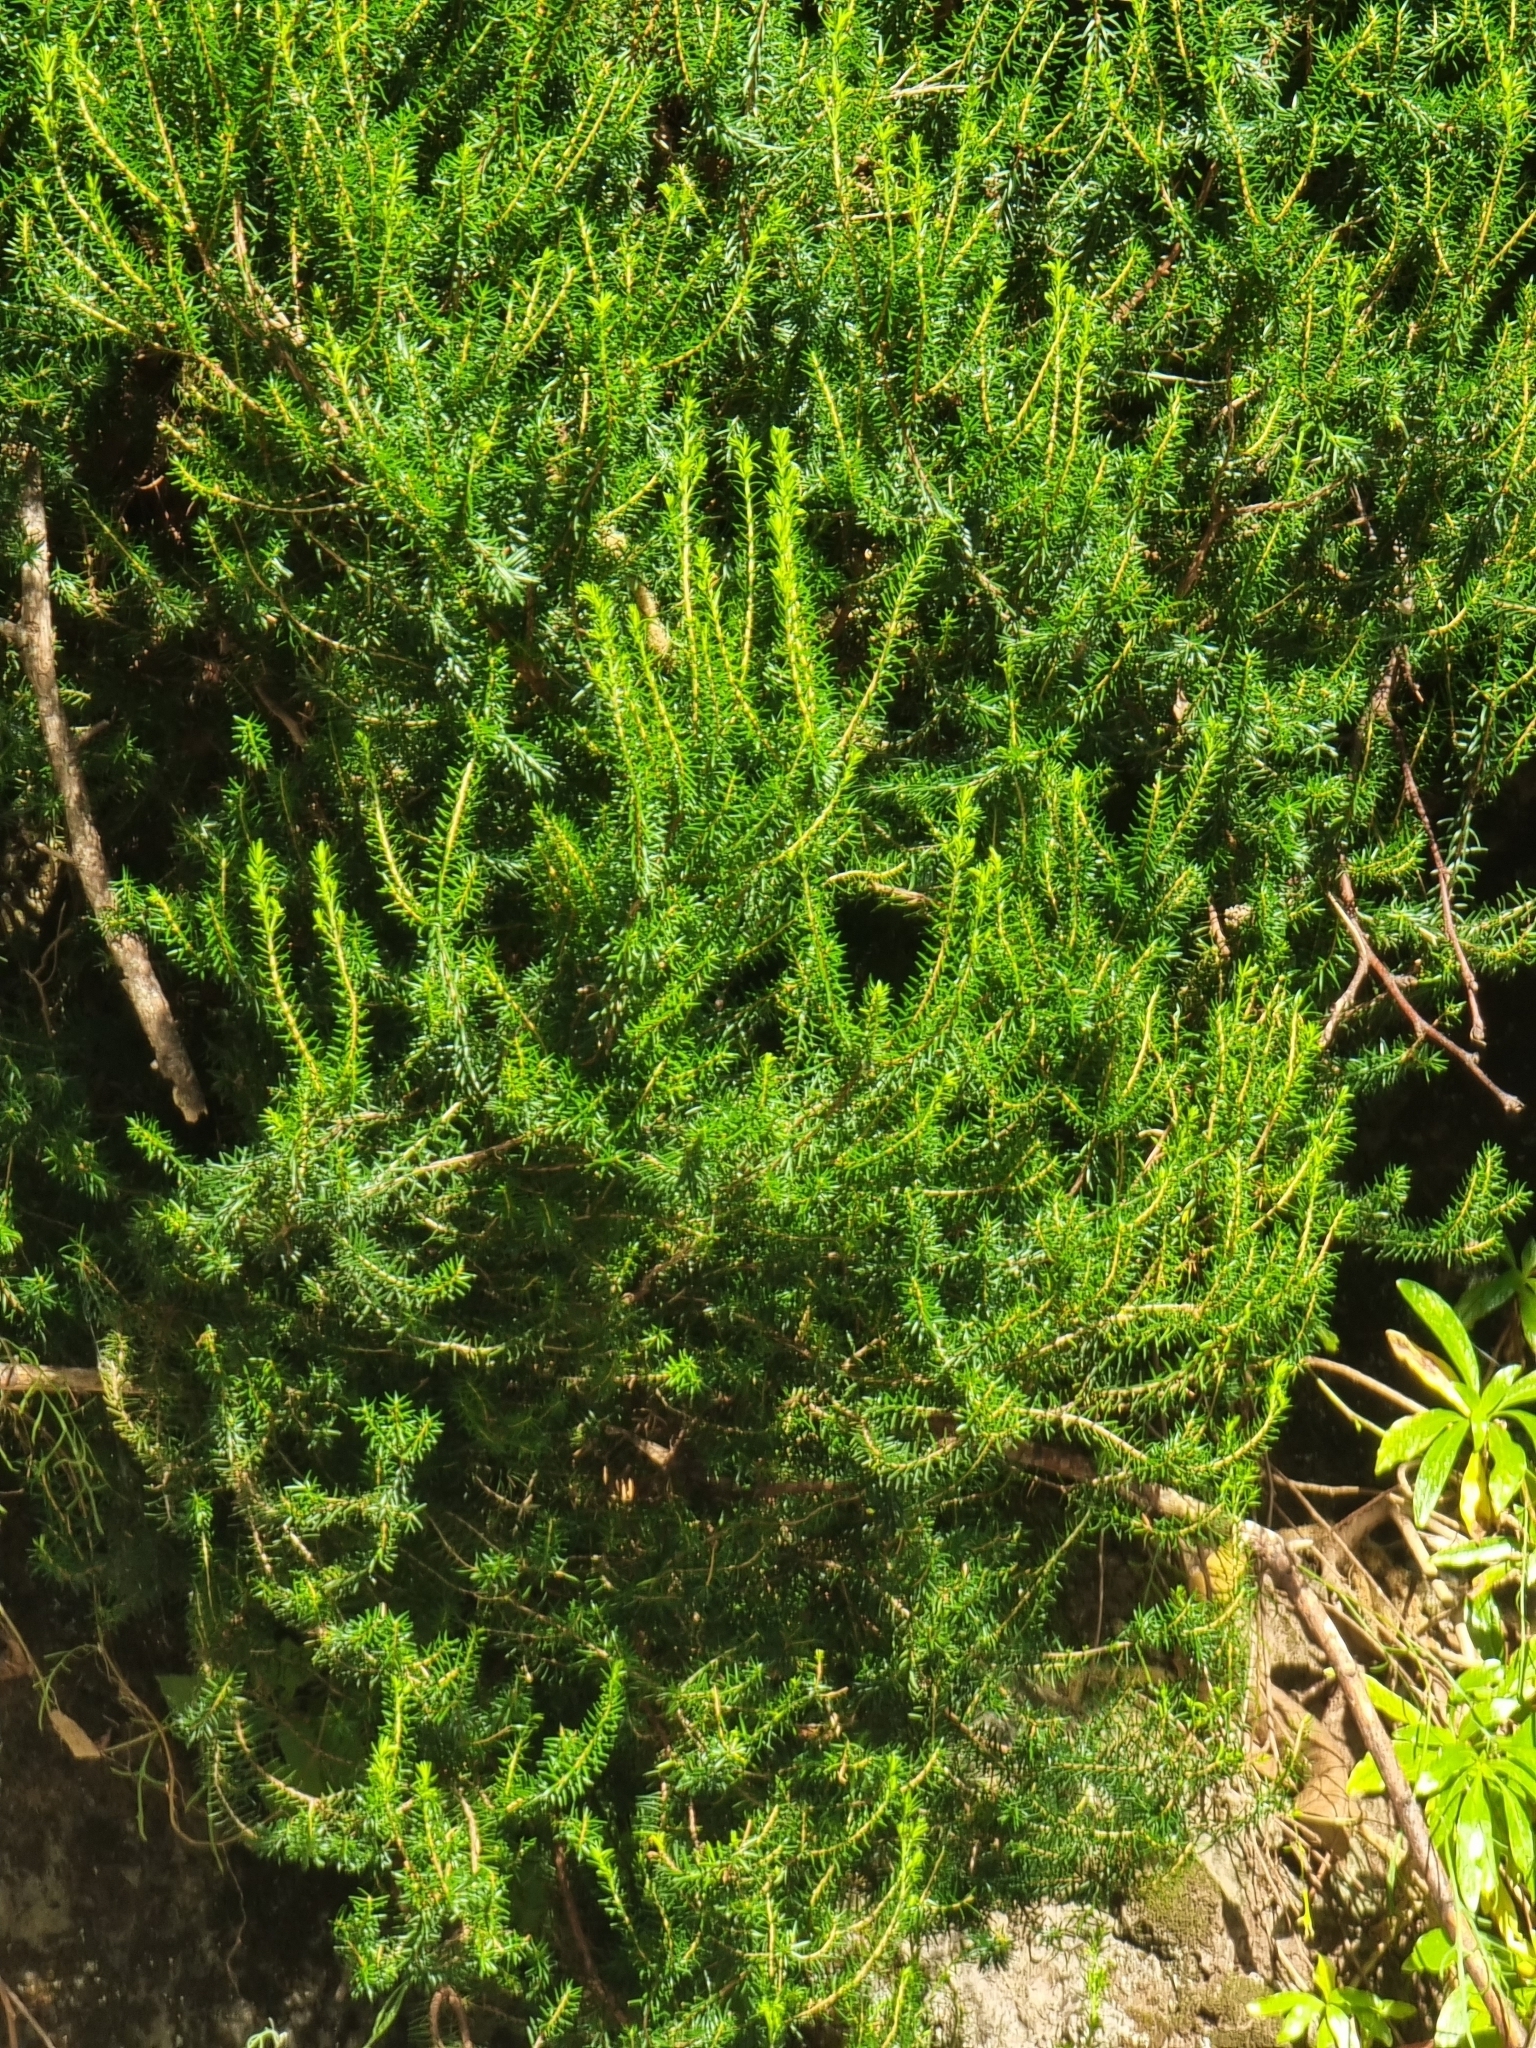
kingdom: Plantae
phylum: Tracheophyta
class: Magnoliopsida
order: Ericales
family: Ericaceae
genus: Erica
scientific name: Erica platycodon
